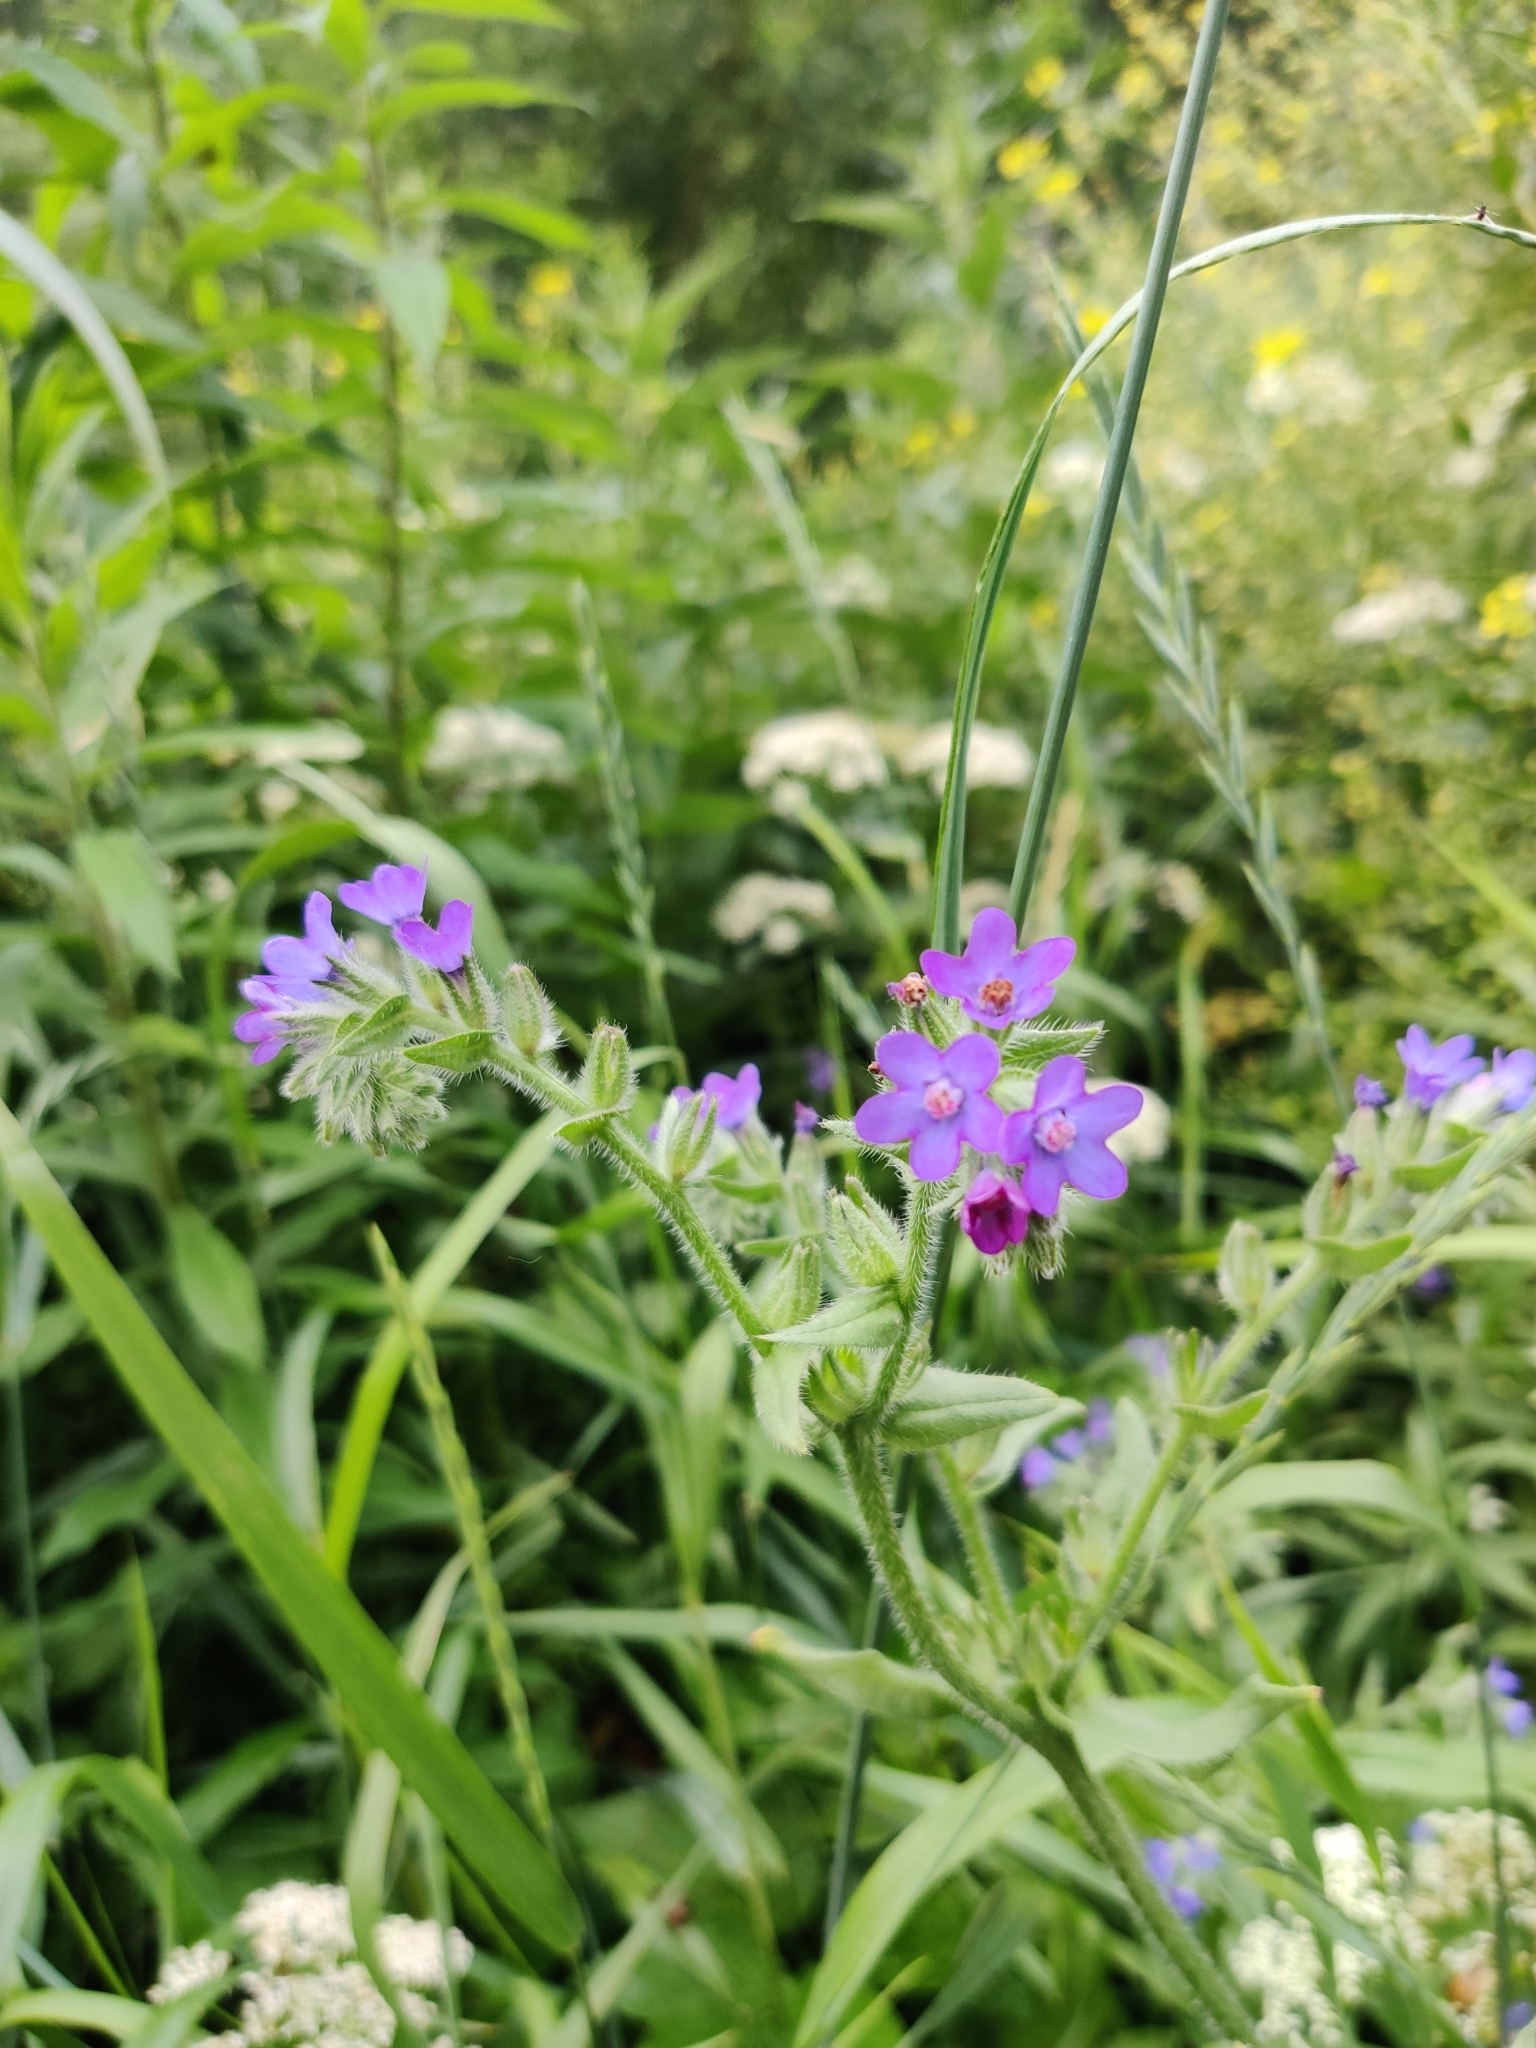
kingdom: Plantae
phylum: Tracheophyta
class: Magnoliopsida
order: Boraginales
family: Boraginaceae
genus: Anchusa
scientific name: Anchusa officinalis
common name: Alkanet
